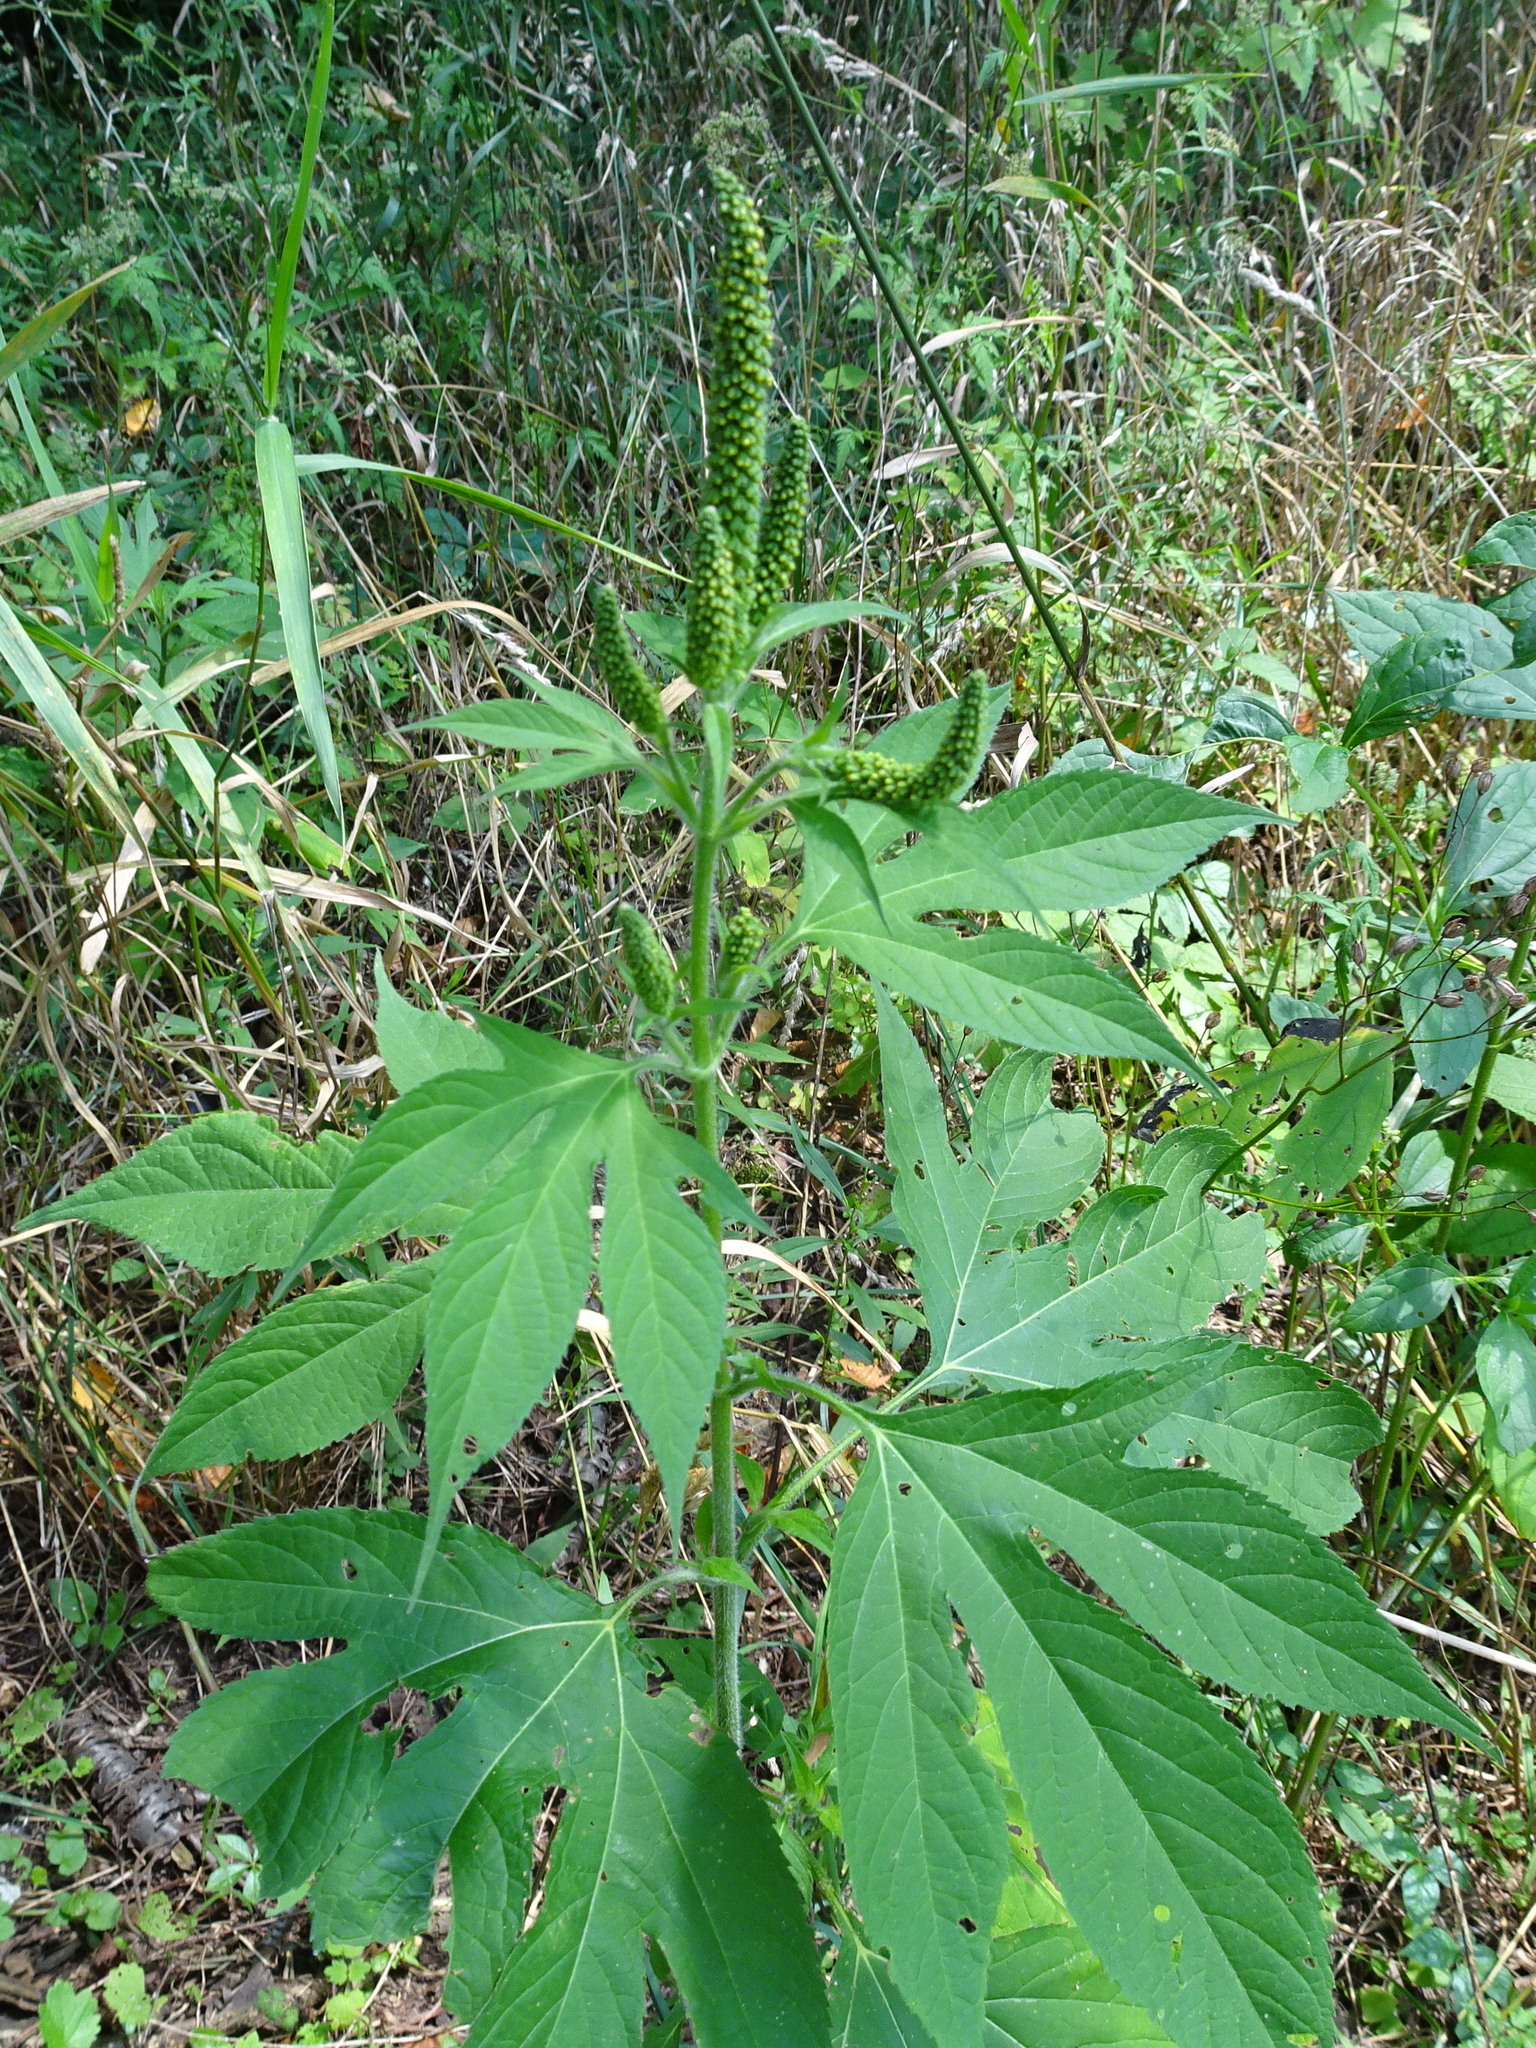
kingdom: Plantae
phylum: Tracheophyta
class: Magnoliopsida
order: Asterales
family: Asteraceae
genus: Ambrosia
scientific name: Ambrosia trifida
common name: Giant ragweed
